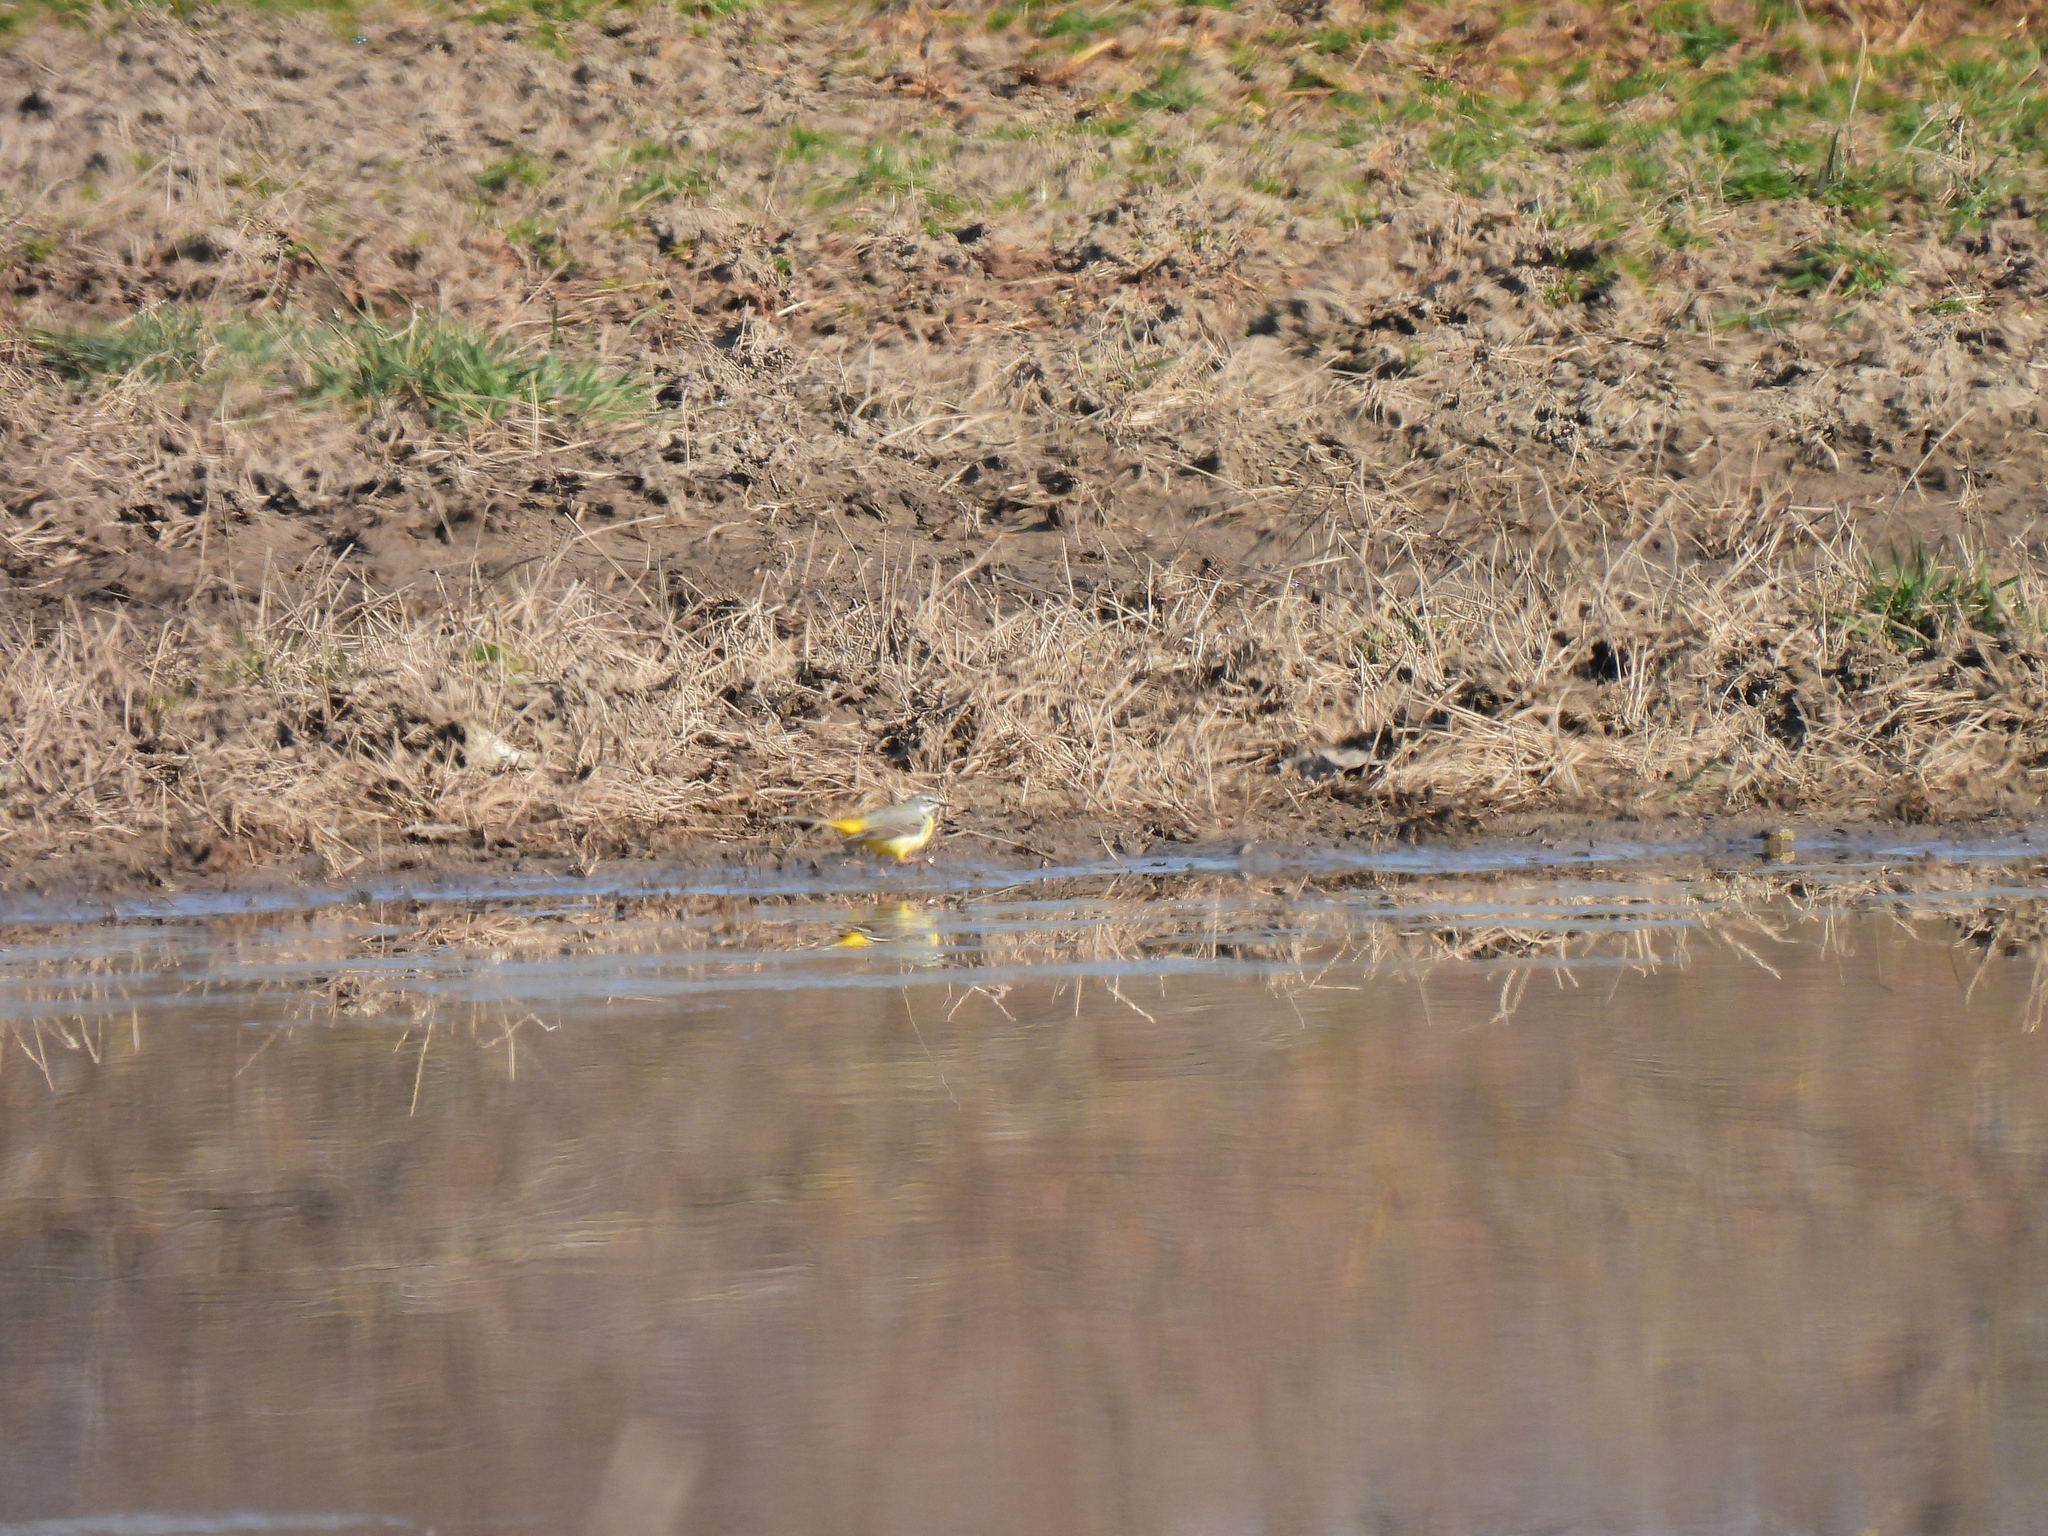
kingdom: Animalia
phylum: Chordata
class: Aves
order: Passeriformes
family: Motacillidae
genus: Motacilla
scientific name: Motacilla cinerea
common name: Grey wagtail
